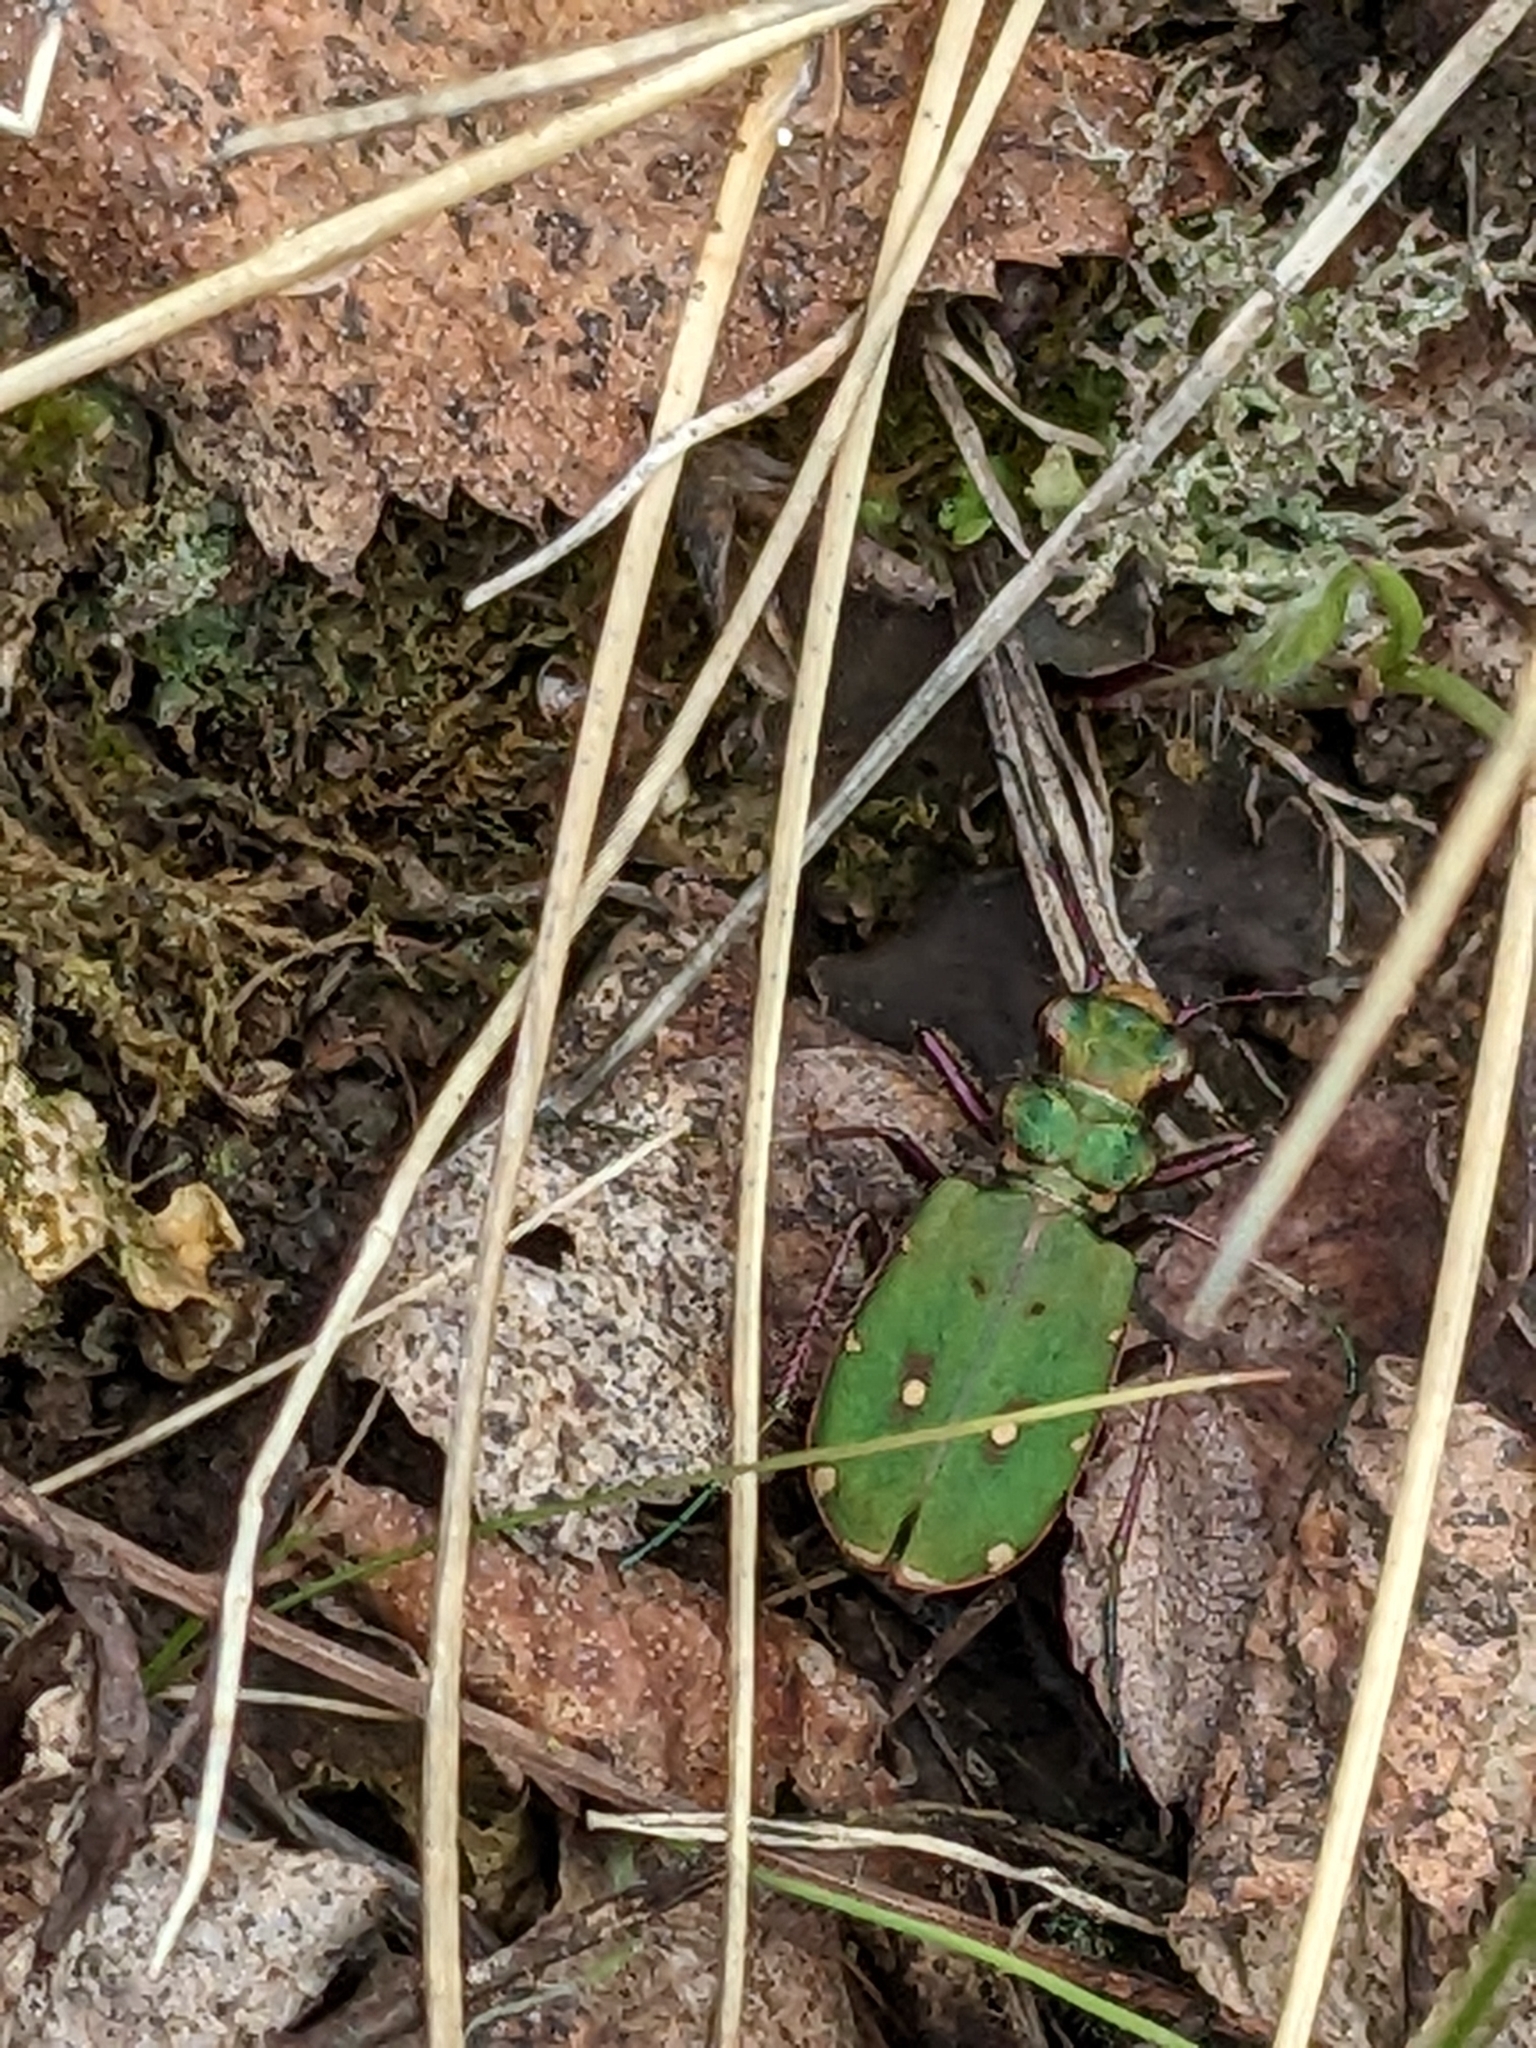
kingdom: Animalia
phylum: Arthropoda
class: Insecta
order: Coleoptera
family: Carabidae
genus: Cicindela
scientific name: Cicindela campestris
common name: Common tiger beetle
